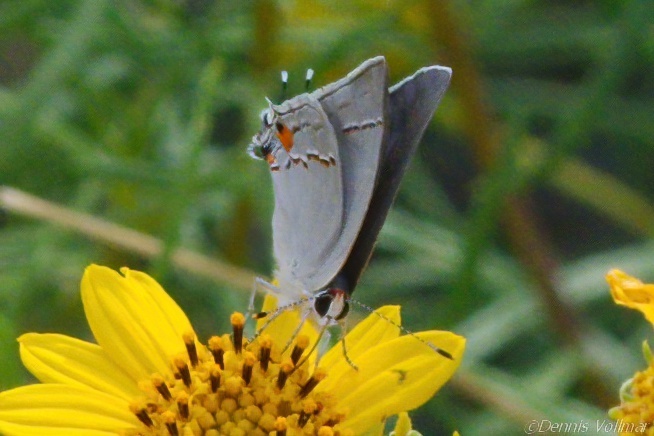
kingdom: Animalia
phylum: Arthropoda
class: Insecta
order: Lepidoptera
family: Lycaenidae
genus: Strymon
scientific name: Strymon melinus
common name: Gray hairstreak
